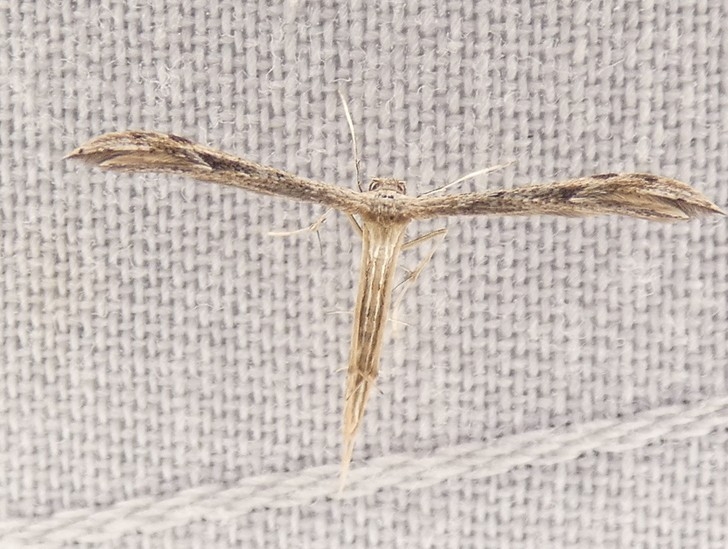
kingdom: Animalia
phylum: Arthropoda
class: Insecta
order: Lepidoptera
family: Pterophoridae
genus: Pselnophorus
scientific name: Pselnophorus belfragei
